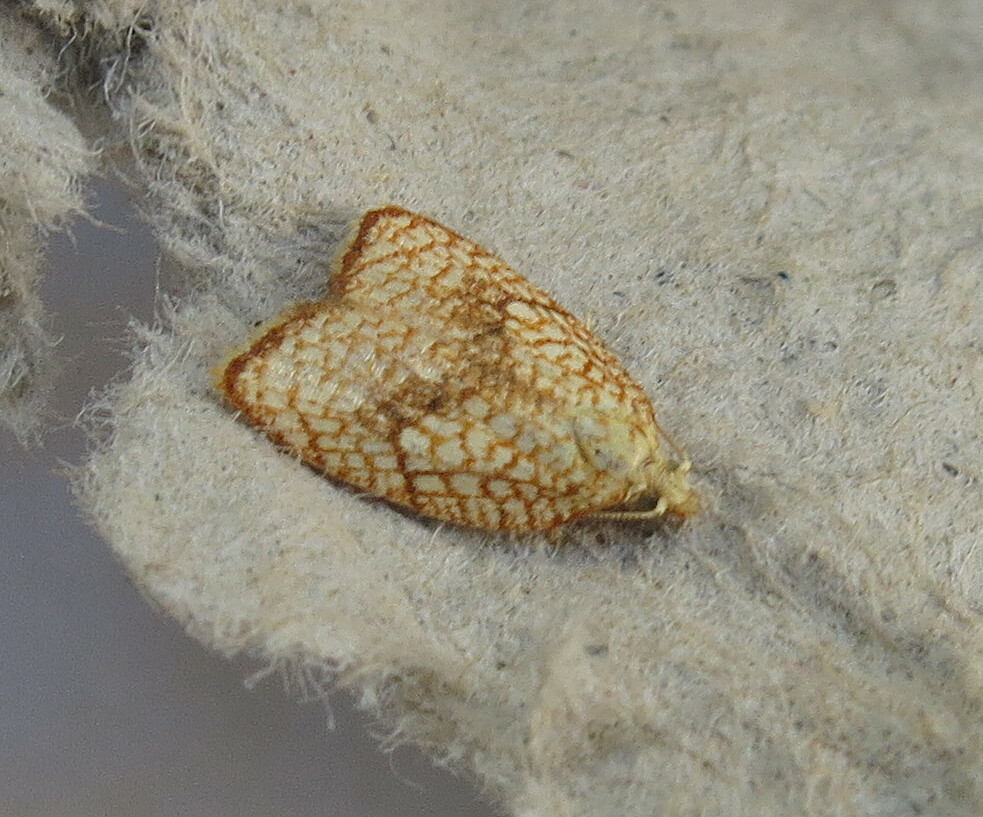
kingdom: Animalia
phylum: Arthropoda
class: Insecta
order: Lepidoptera
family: Tortricidae
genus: Acleris
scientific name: Acleris forsskaleana
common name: Maple button
